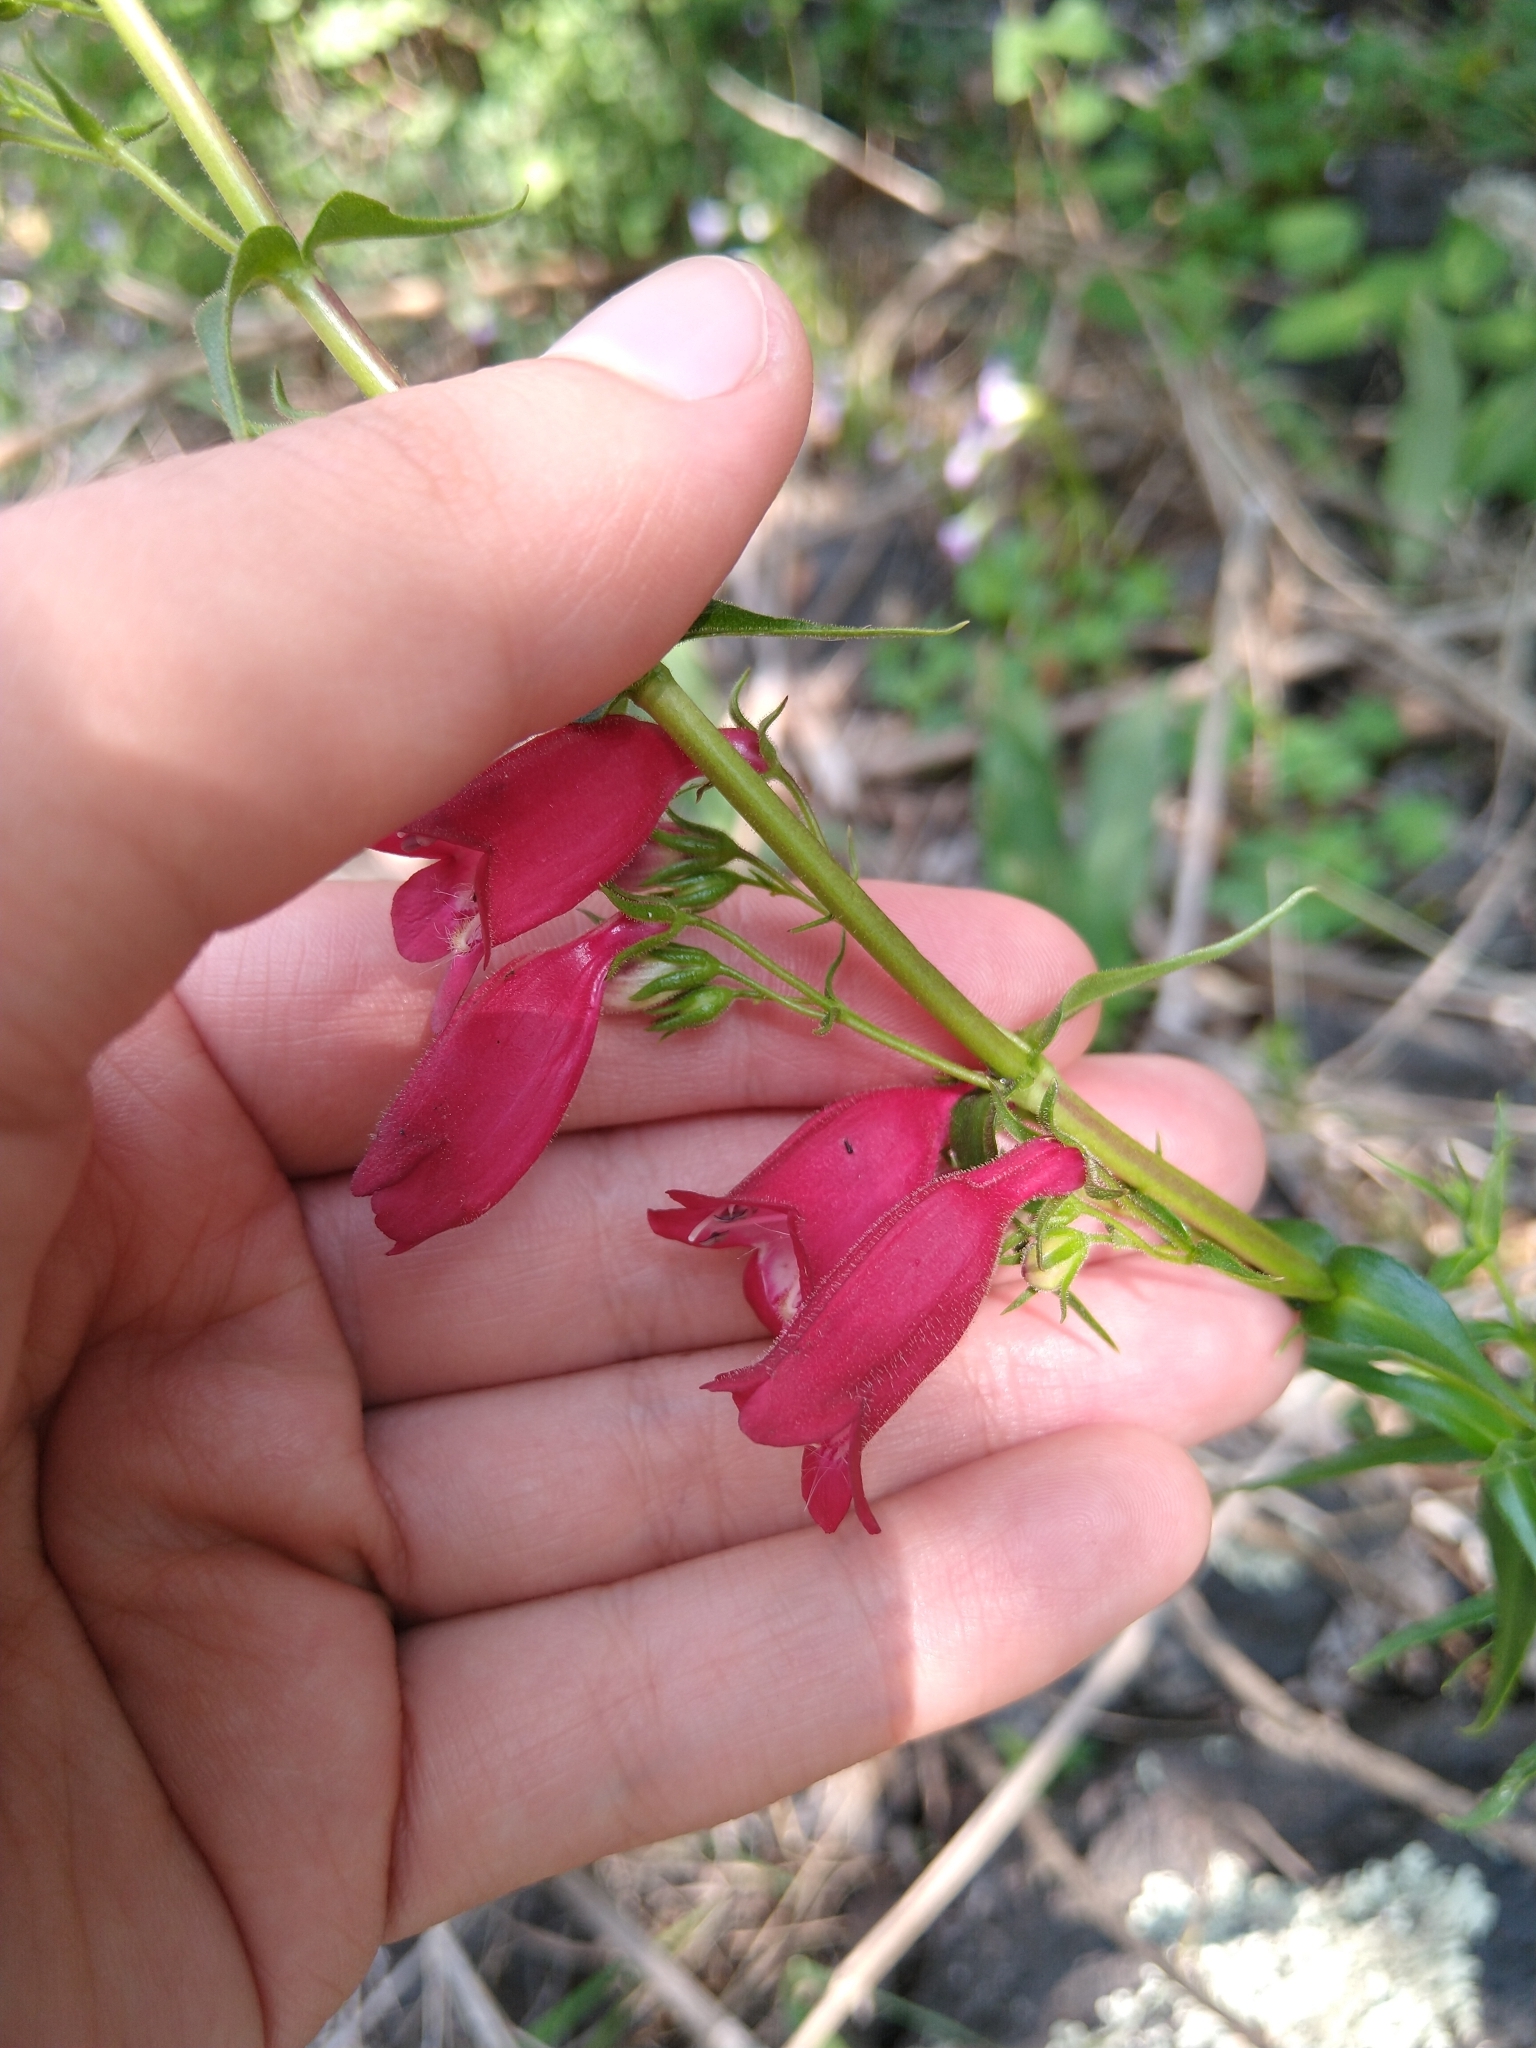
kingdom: Plantae
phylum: Tracheophyta
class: Magnoliopsida
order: Lamiales
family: Plantaginaceae
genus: Penstemon
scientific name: Penstemon roseus
